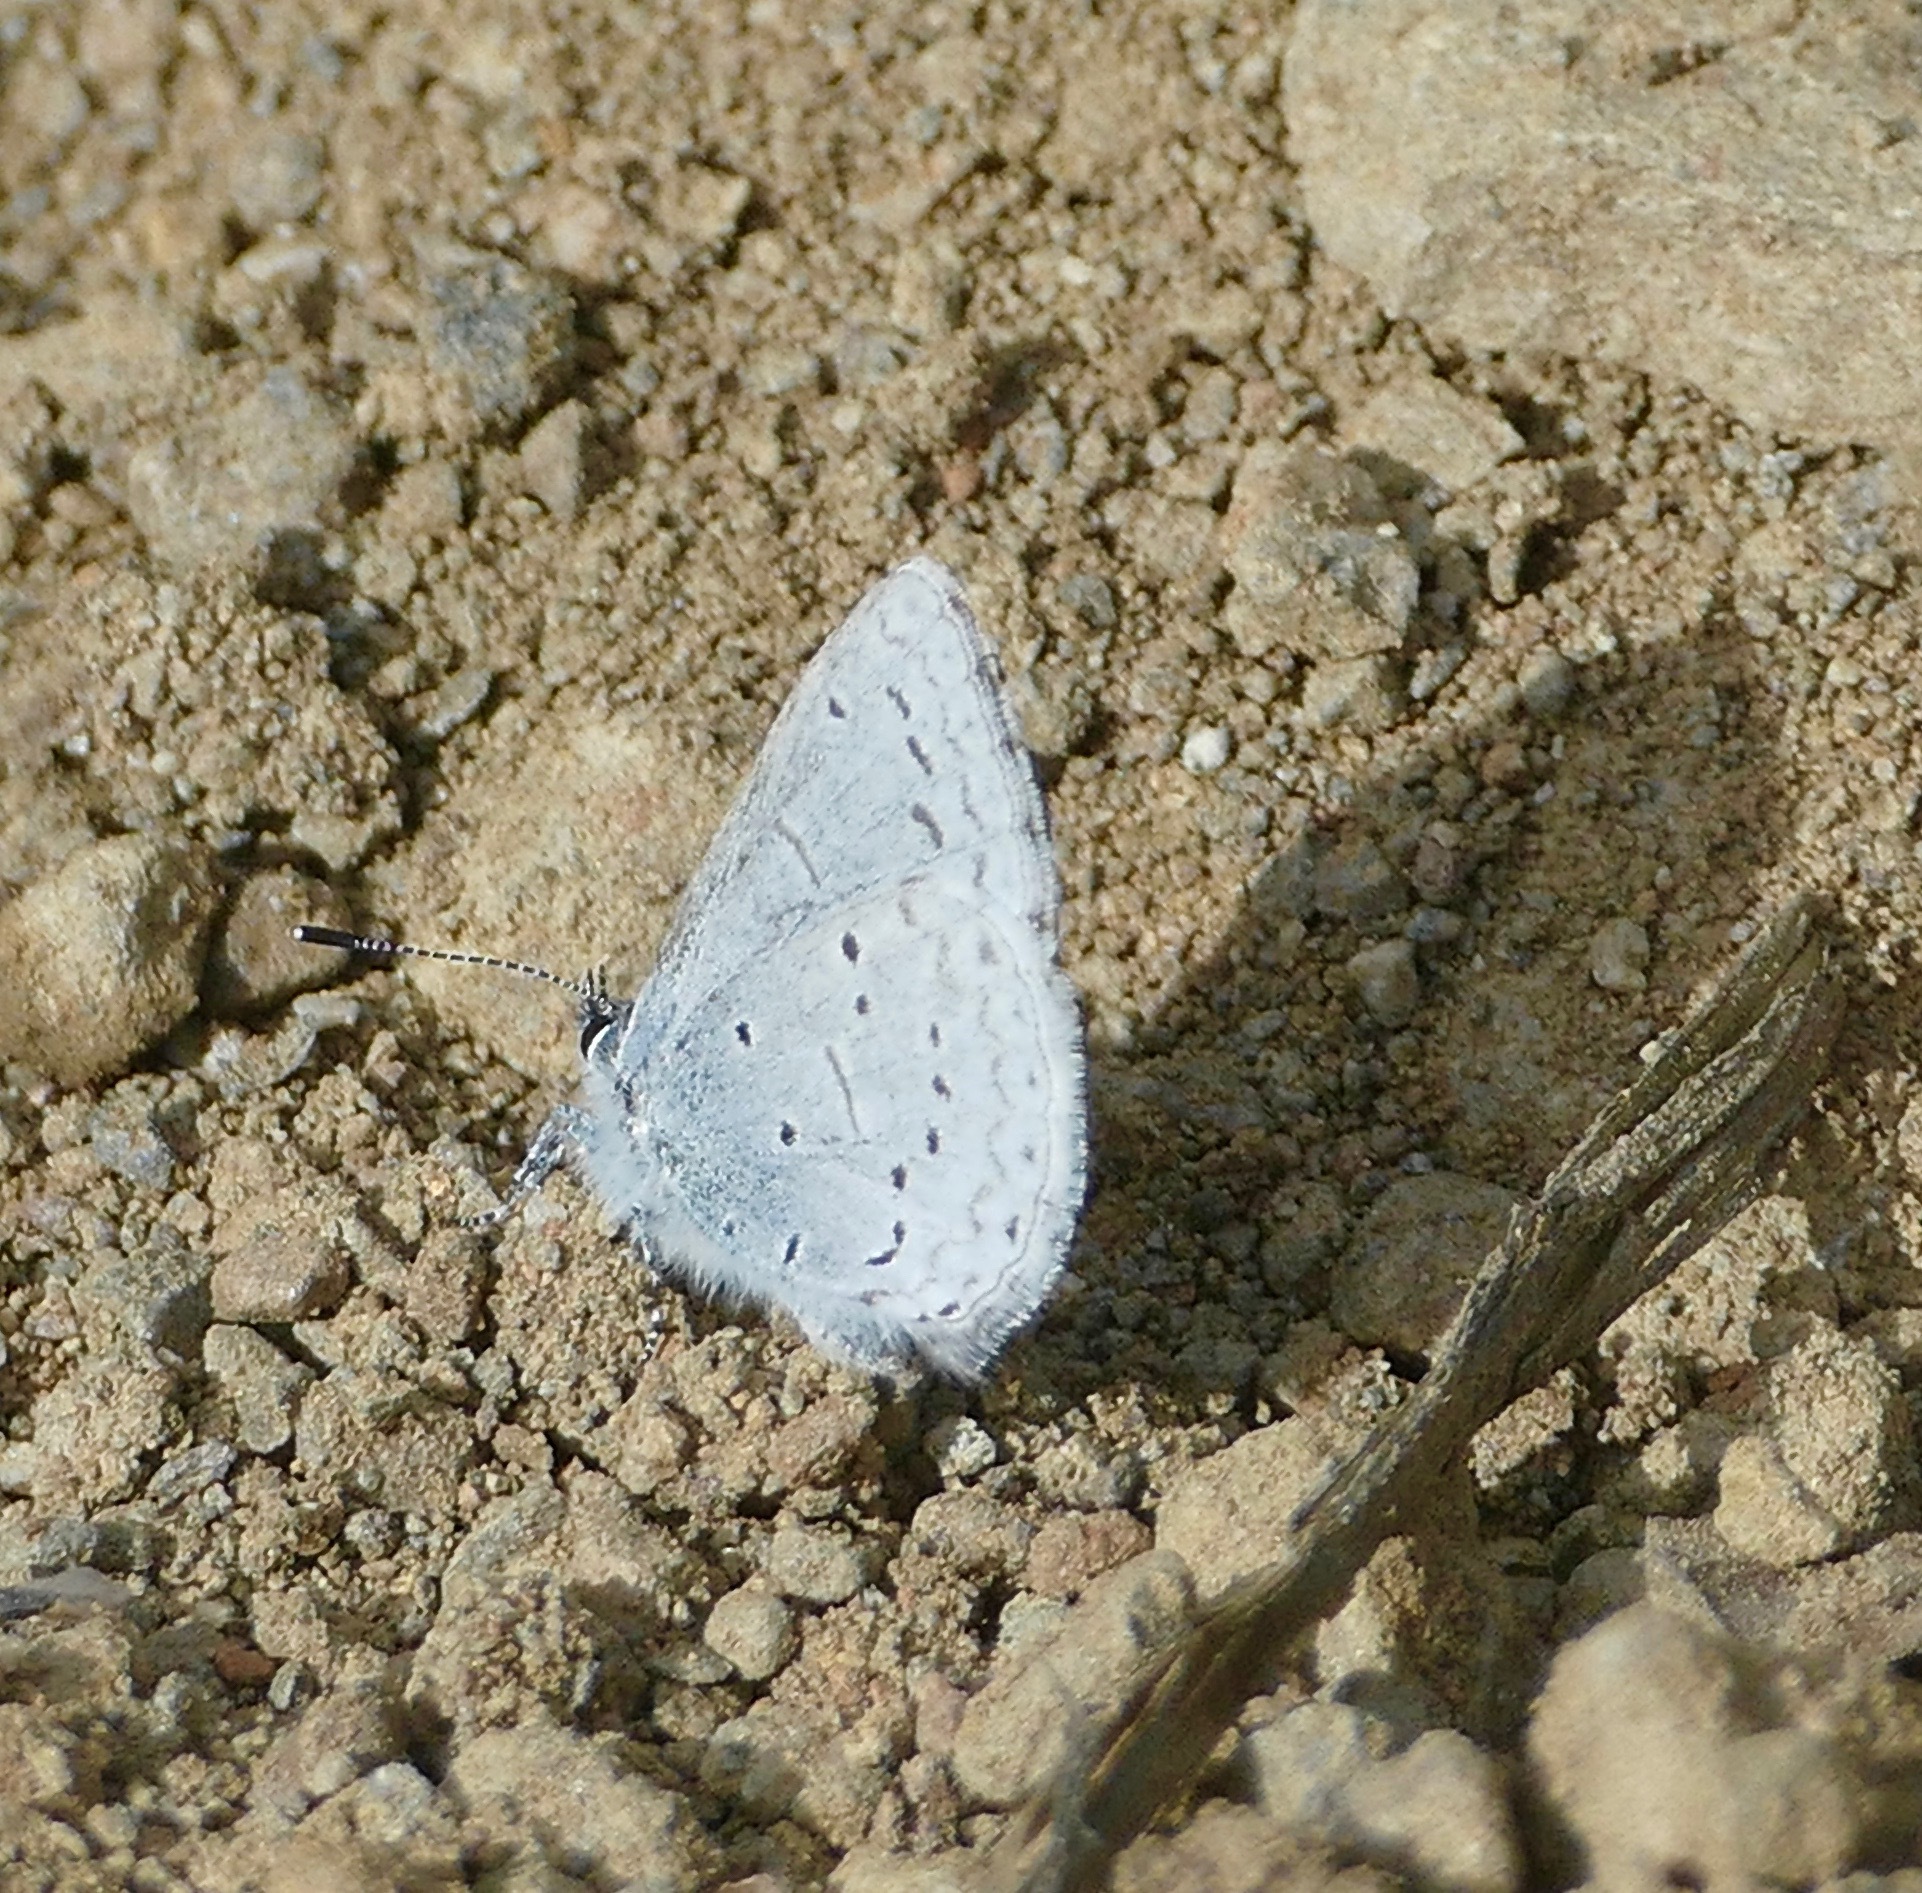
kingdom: Animalia
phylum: Arthropoda
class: Insecta
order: Lepidoptera
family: Lycaenidae
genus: Celastrina
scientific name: Celastrina ladon
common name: Spring azure
